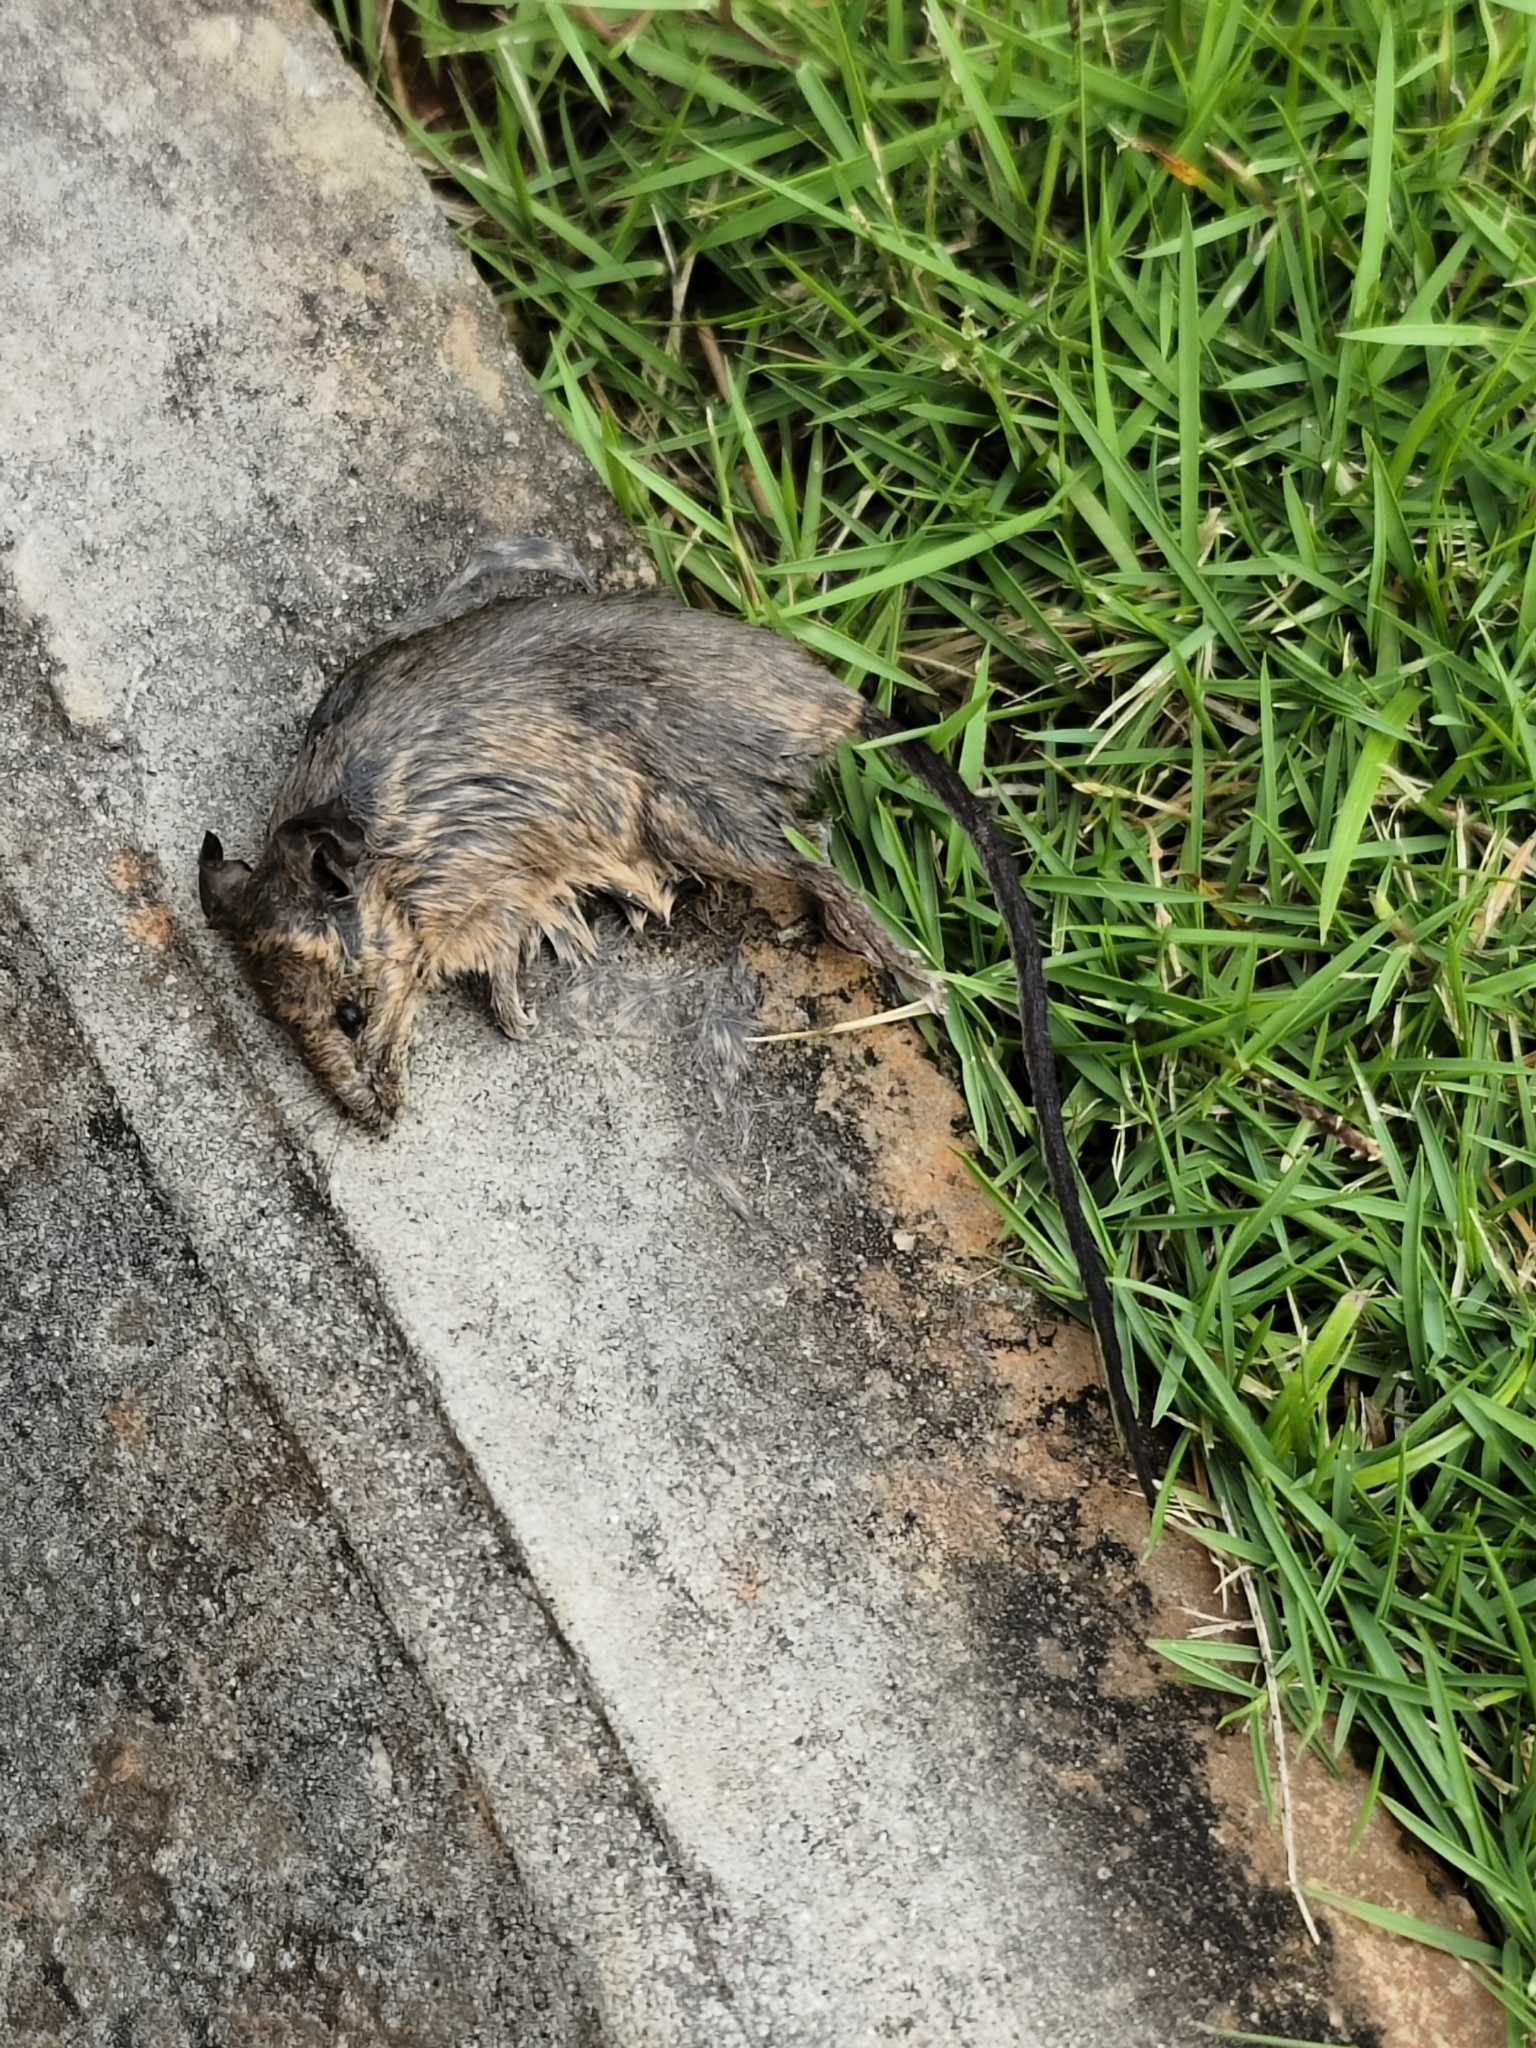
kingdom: Animalia
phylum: Chordata
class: Mammalia
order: Rodentia
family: Muridae
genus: Mus
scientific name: Mus musculus
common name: House mouse
